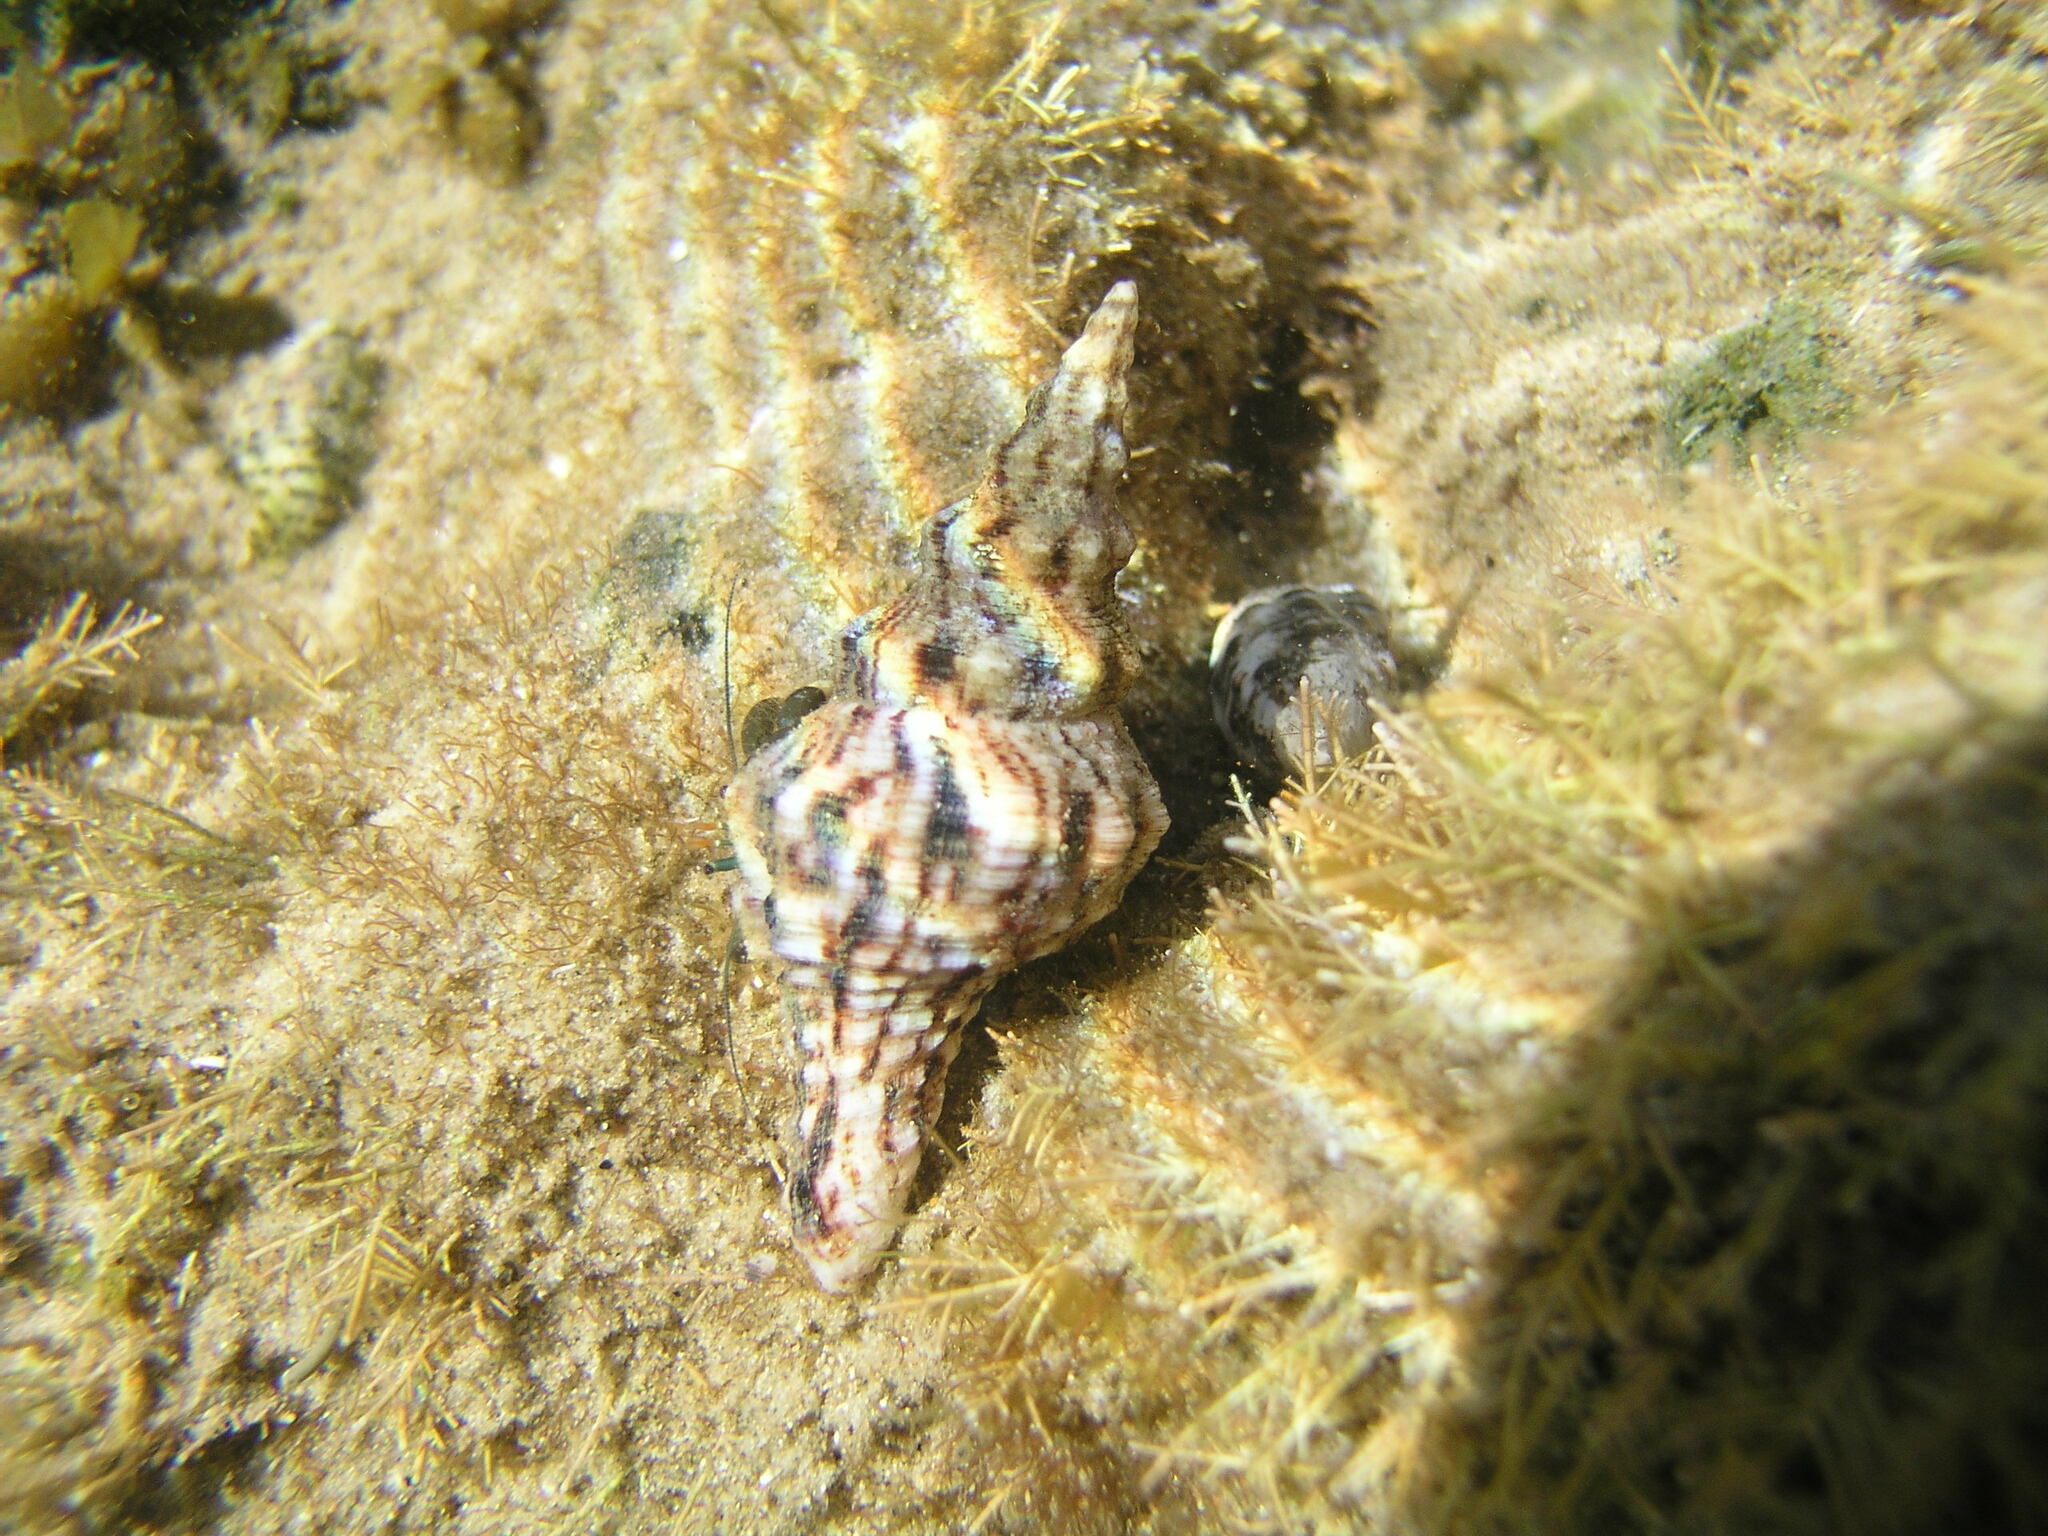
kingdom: Animalia
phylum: Mollusca
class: Gastropoda
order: Neogastropoda
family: Fasciolariidae
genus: Marmorofusus
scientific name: Marmorofusus nicobaricus
